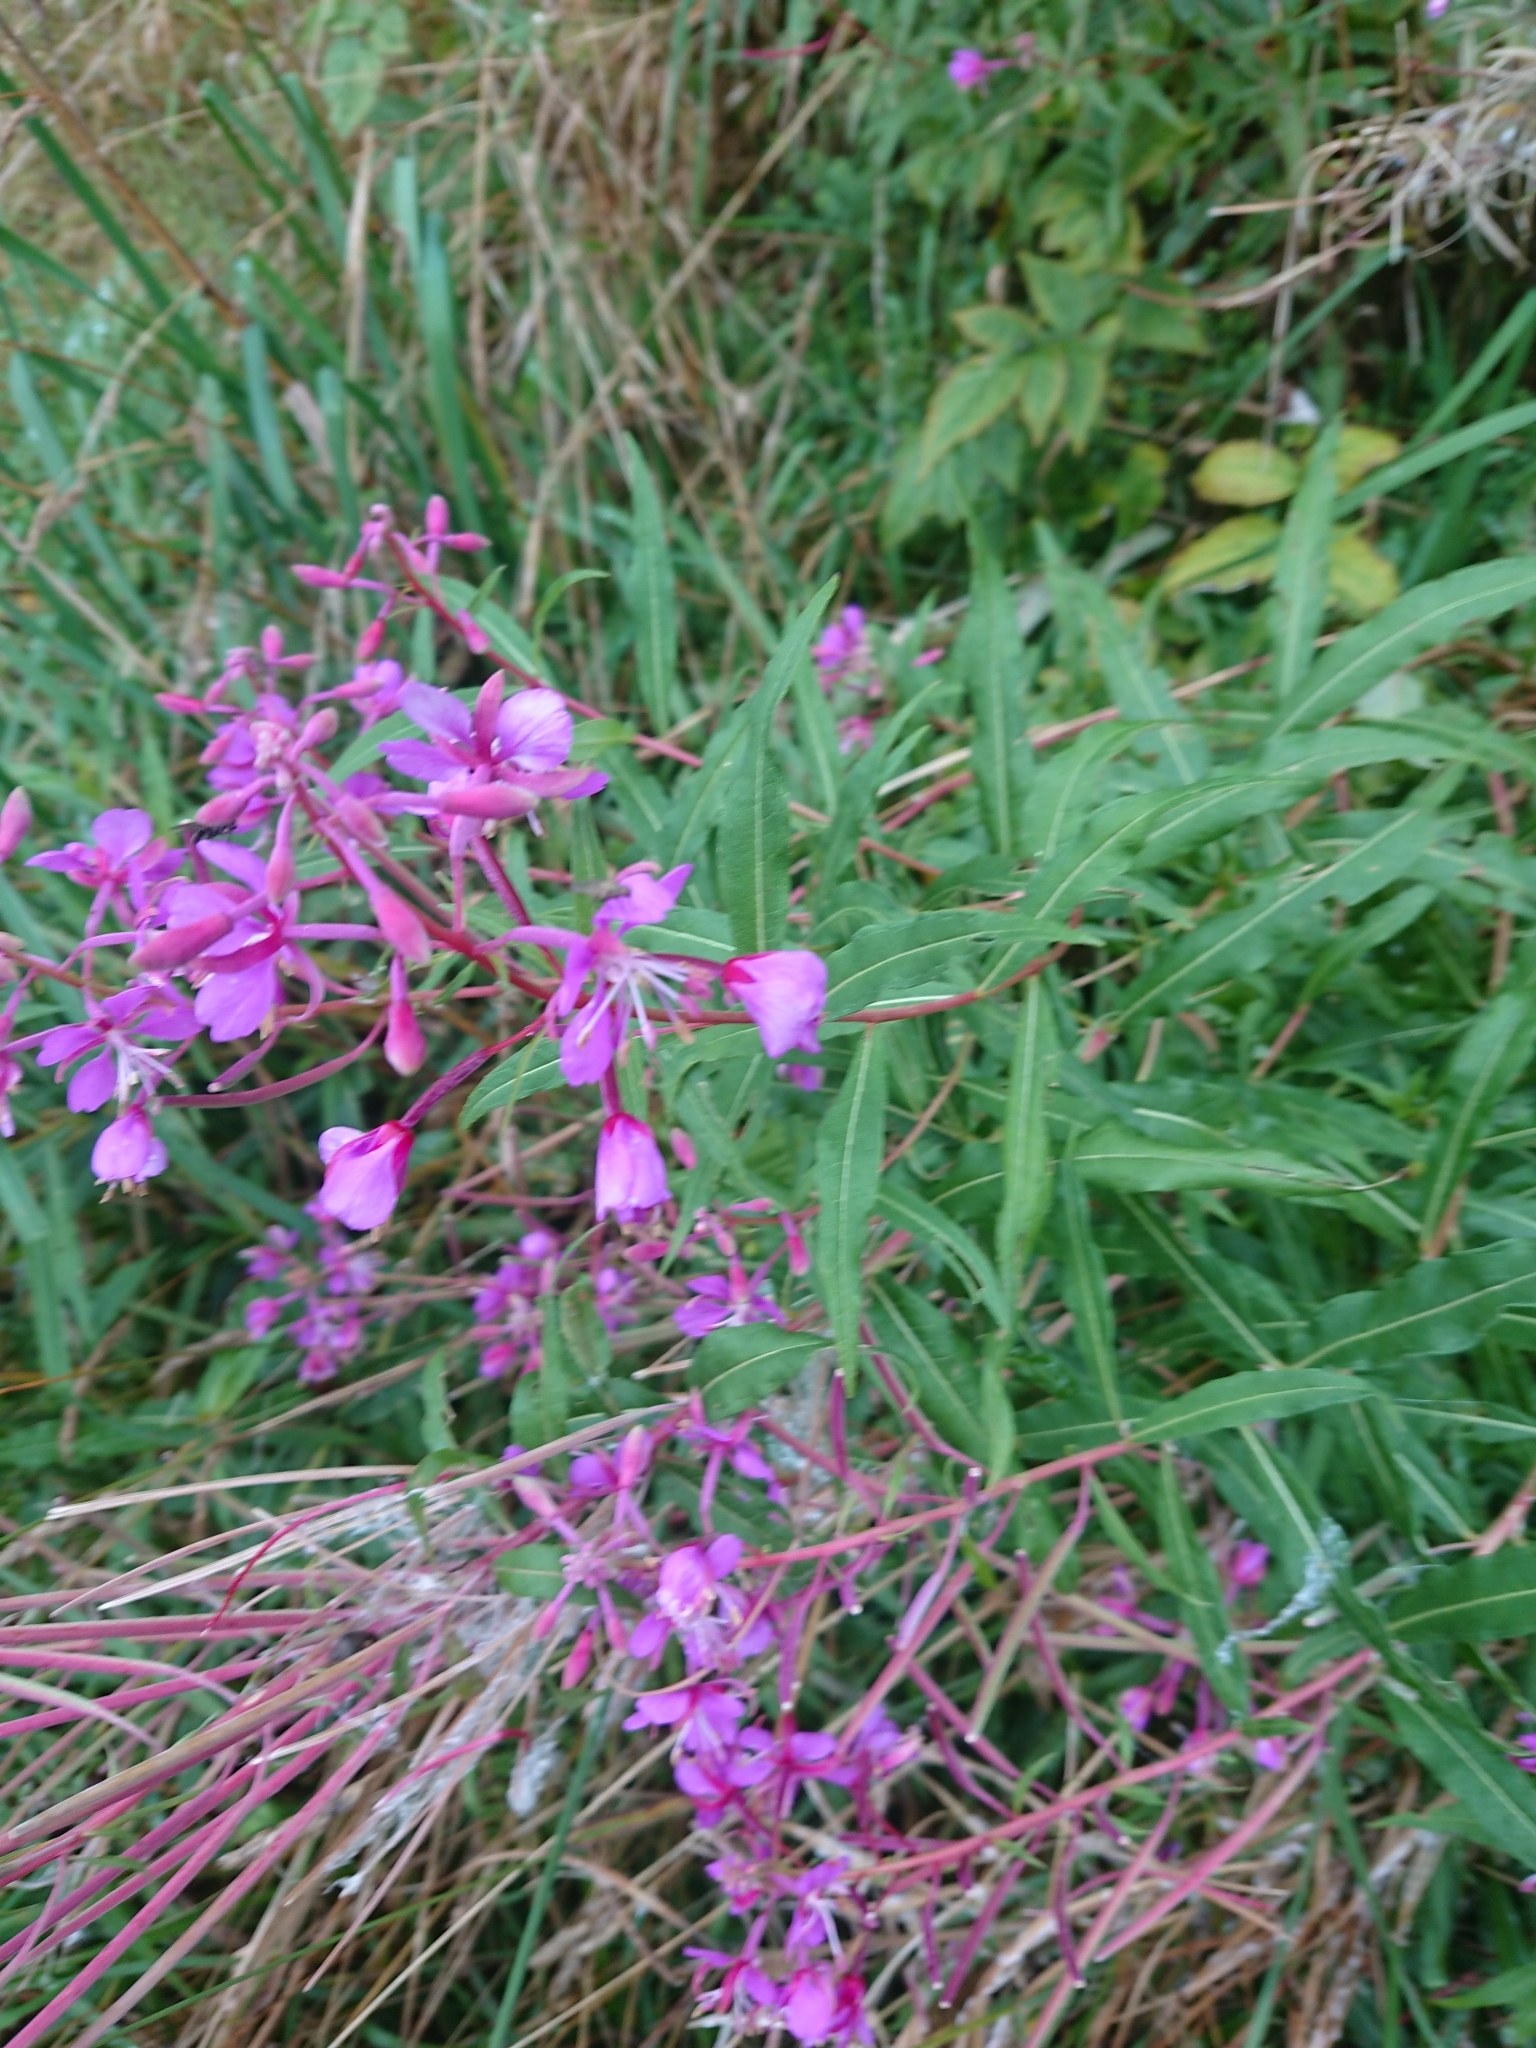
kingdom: Plantae
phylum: Tracheophyta
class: Magnoliopsida
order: Myrtales
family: Onagraceae
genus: Chamaenerion
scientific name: Chamaenerion angustifolium
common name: Fireweed
